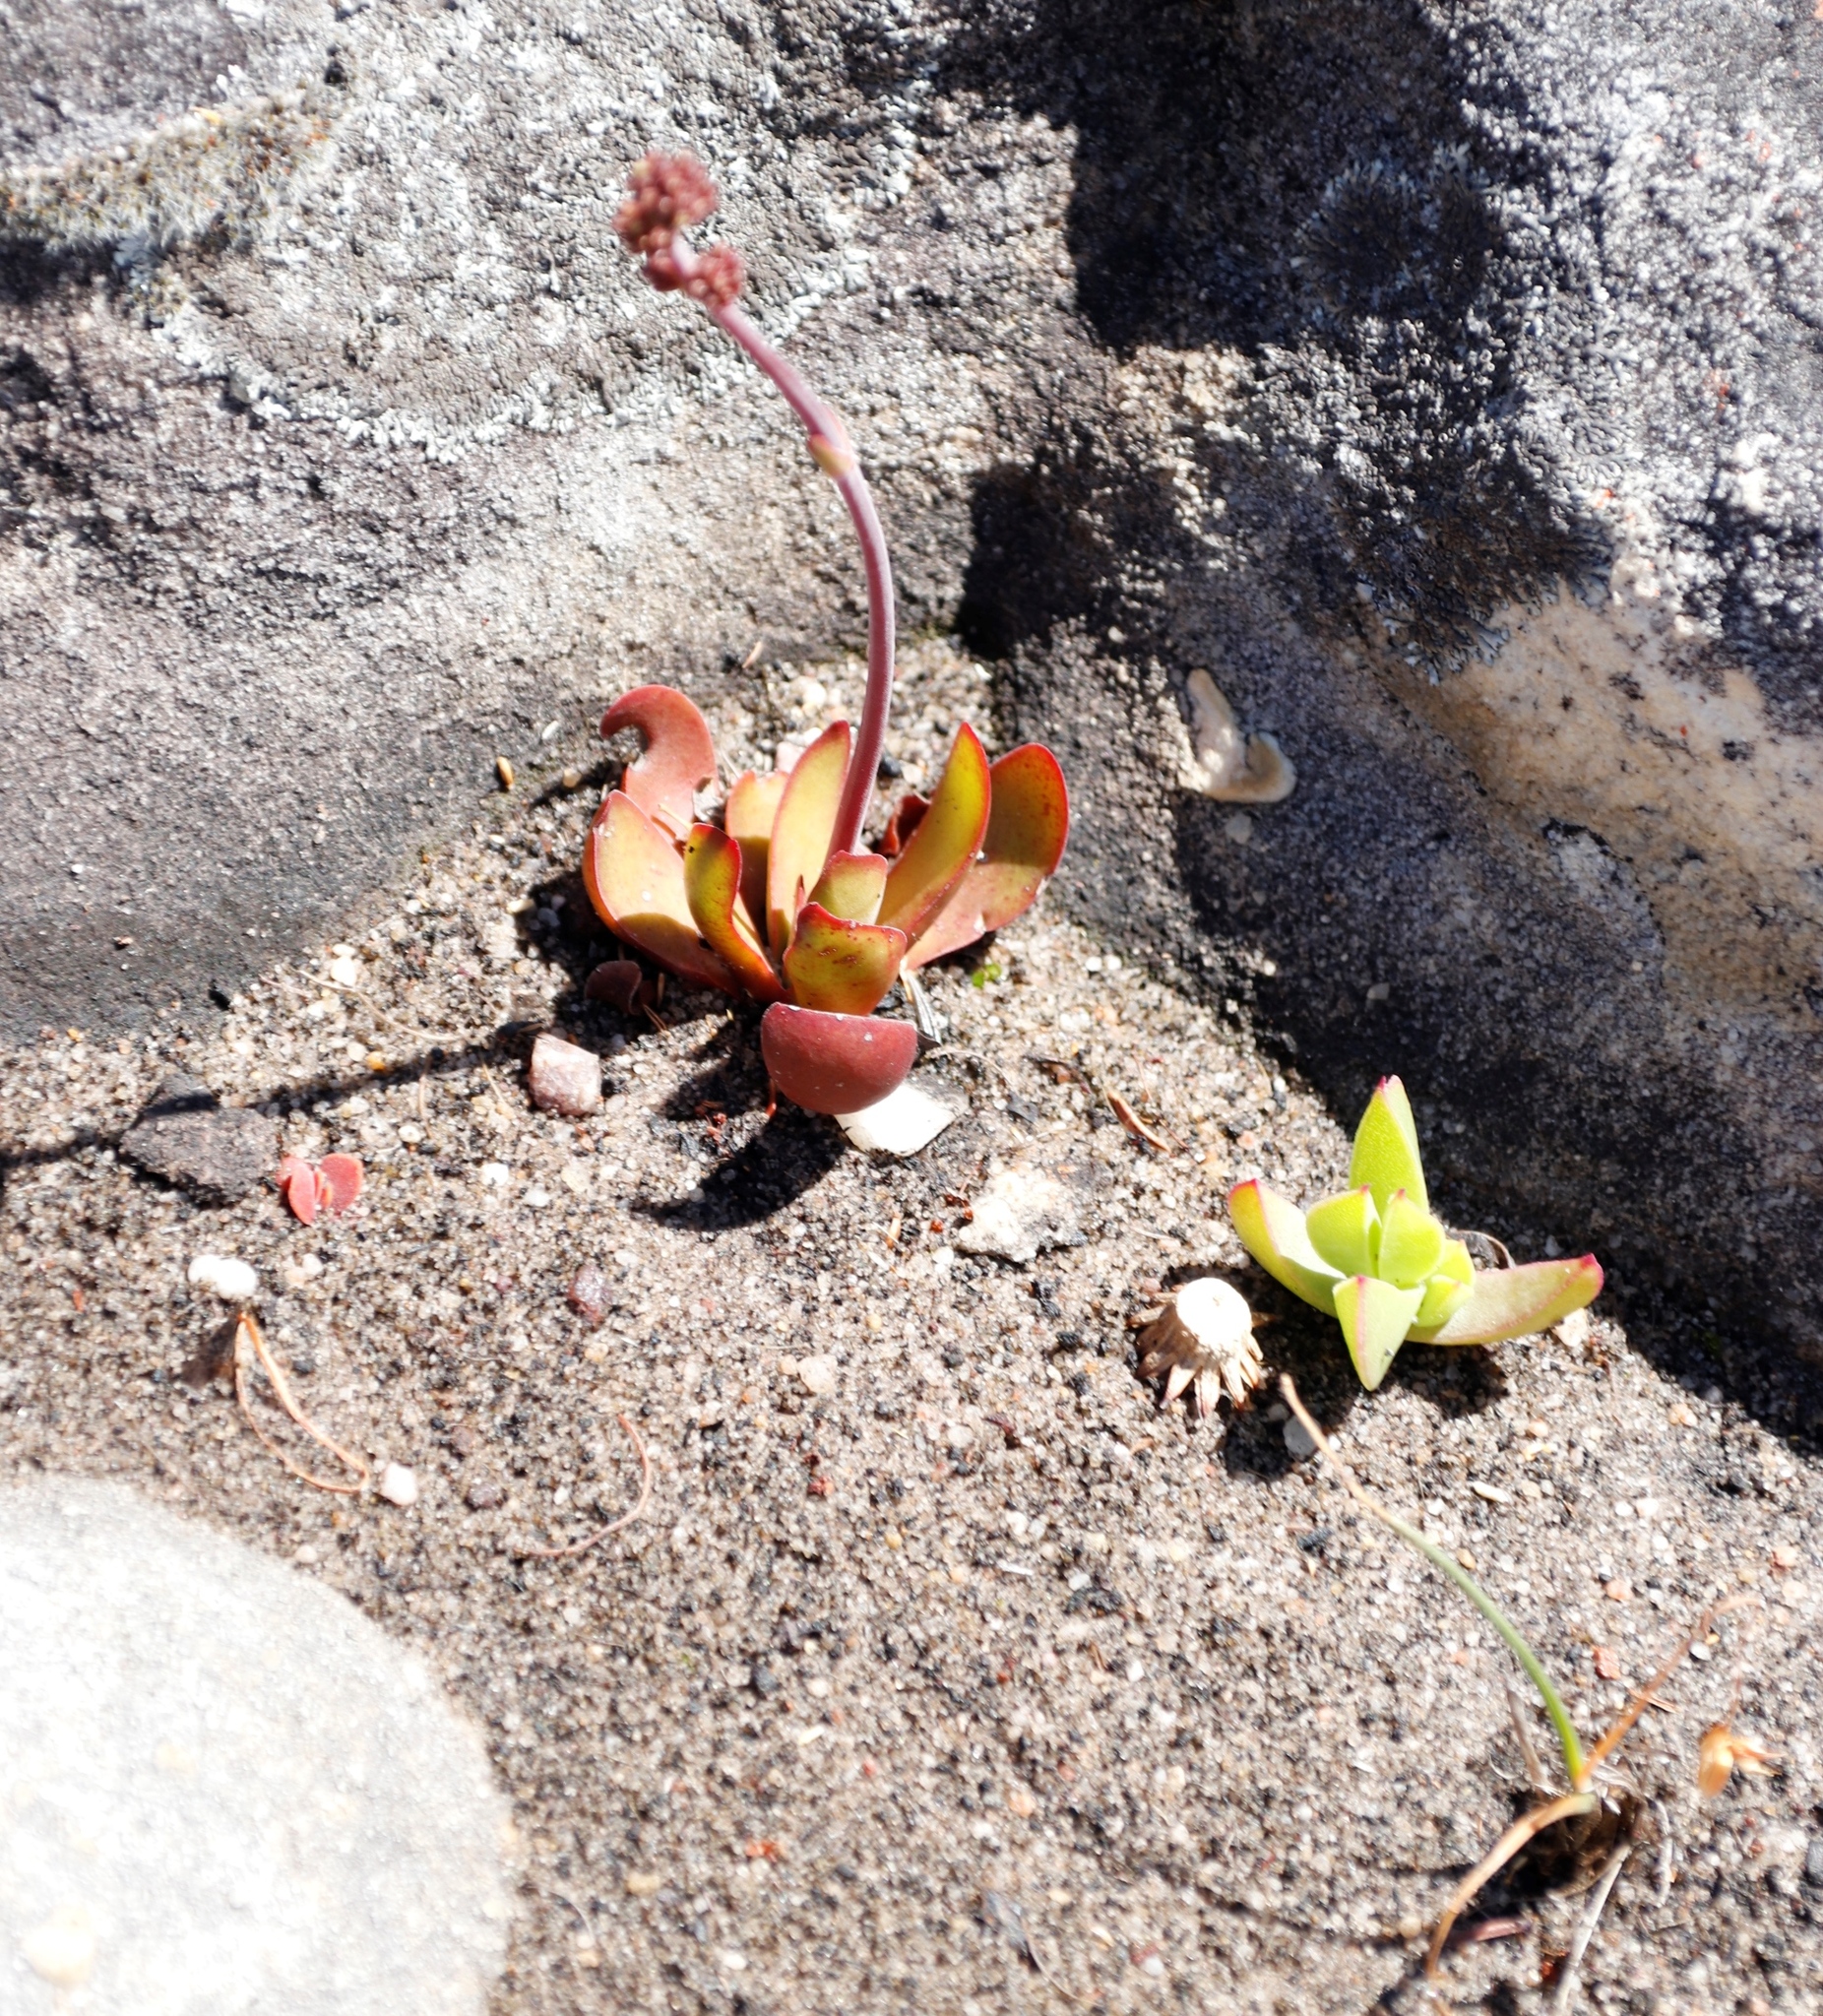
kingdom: Plantae
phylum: Tracheophyta
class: Magnoliopsida
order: Saxifragales
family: Crassulaceae
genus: Crassula
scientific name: Crassula nudicaulis
